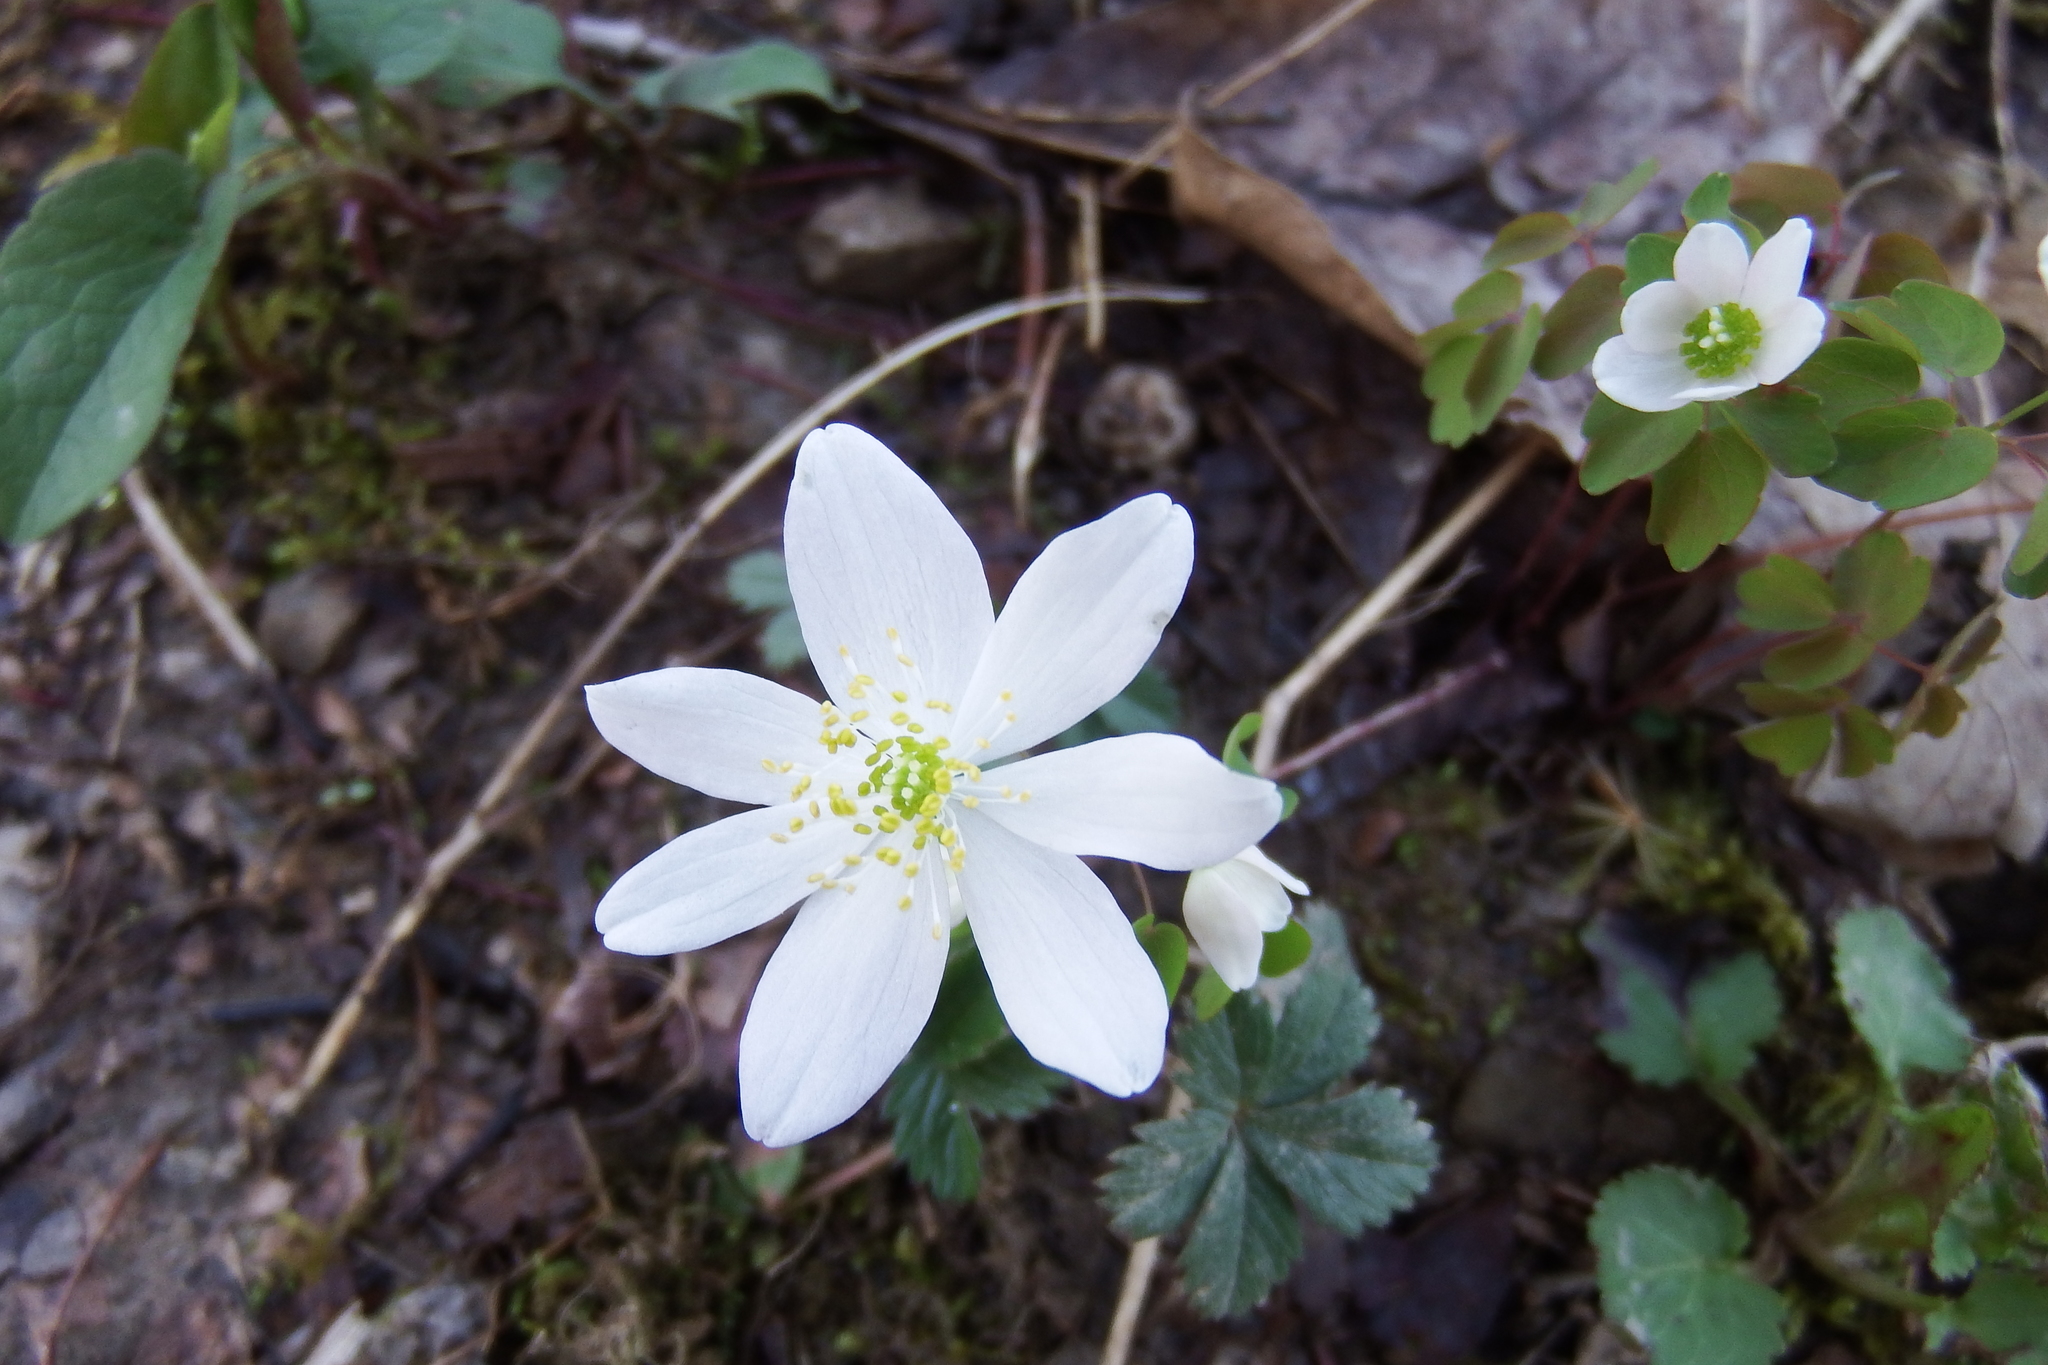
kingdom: Plantae
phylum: Tracheophyta
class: Magnoliopsida
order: Ranunculales
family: Ranunculaceae
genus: Thalictrum
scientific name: Thalictrum thalictroides
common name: Rue-anemone
